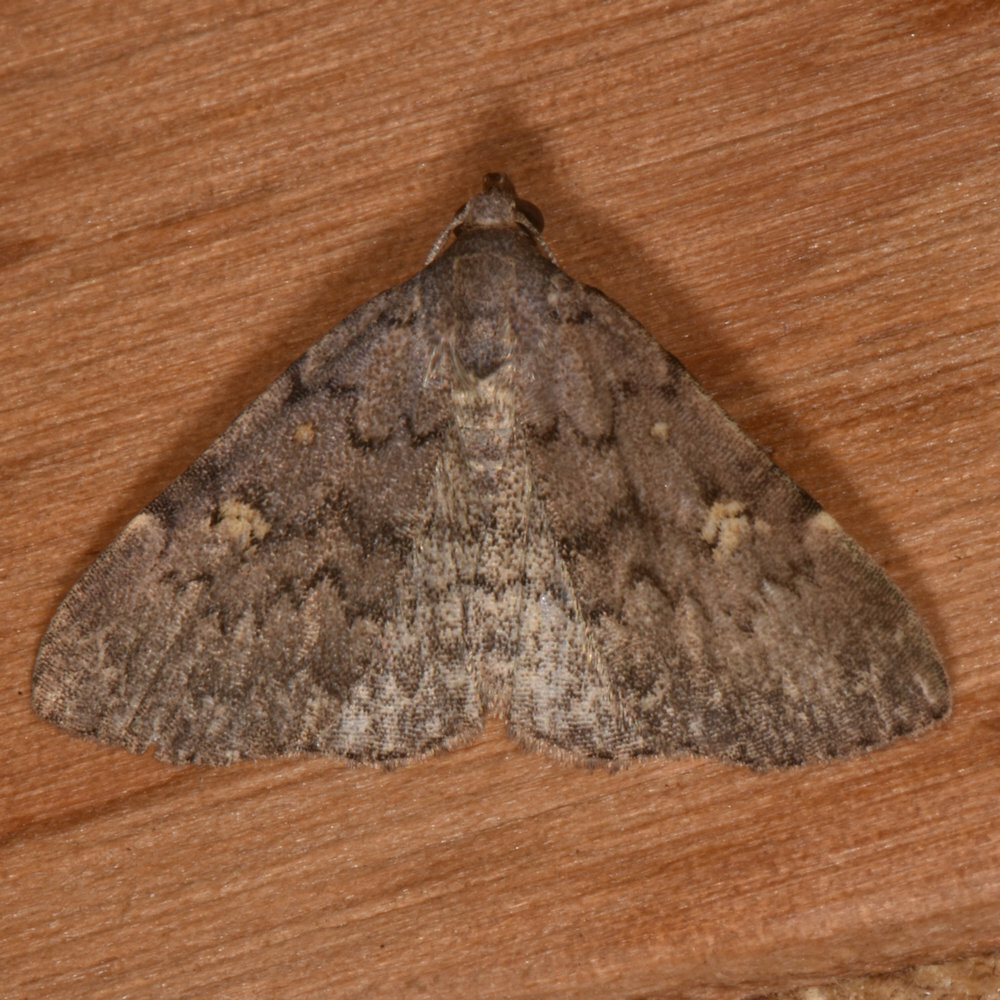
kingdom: Animalia
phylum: Arthropoda
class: Insecta
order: Lepidoptera
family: Erebidae
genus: Idia
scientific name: Idia aemula
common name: Common idia moth
